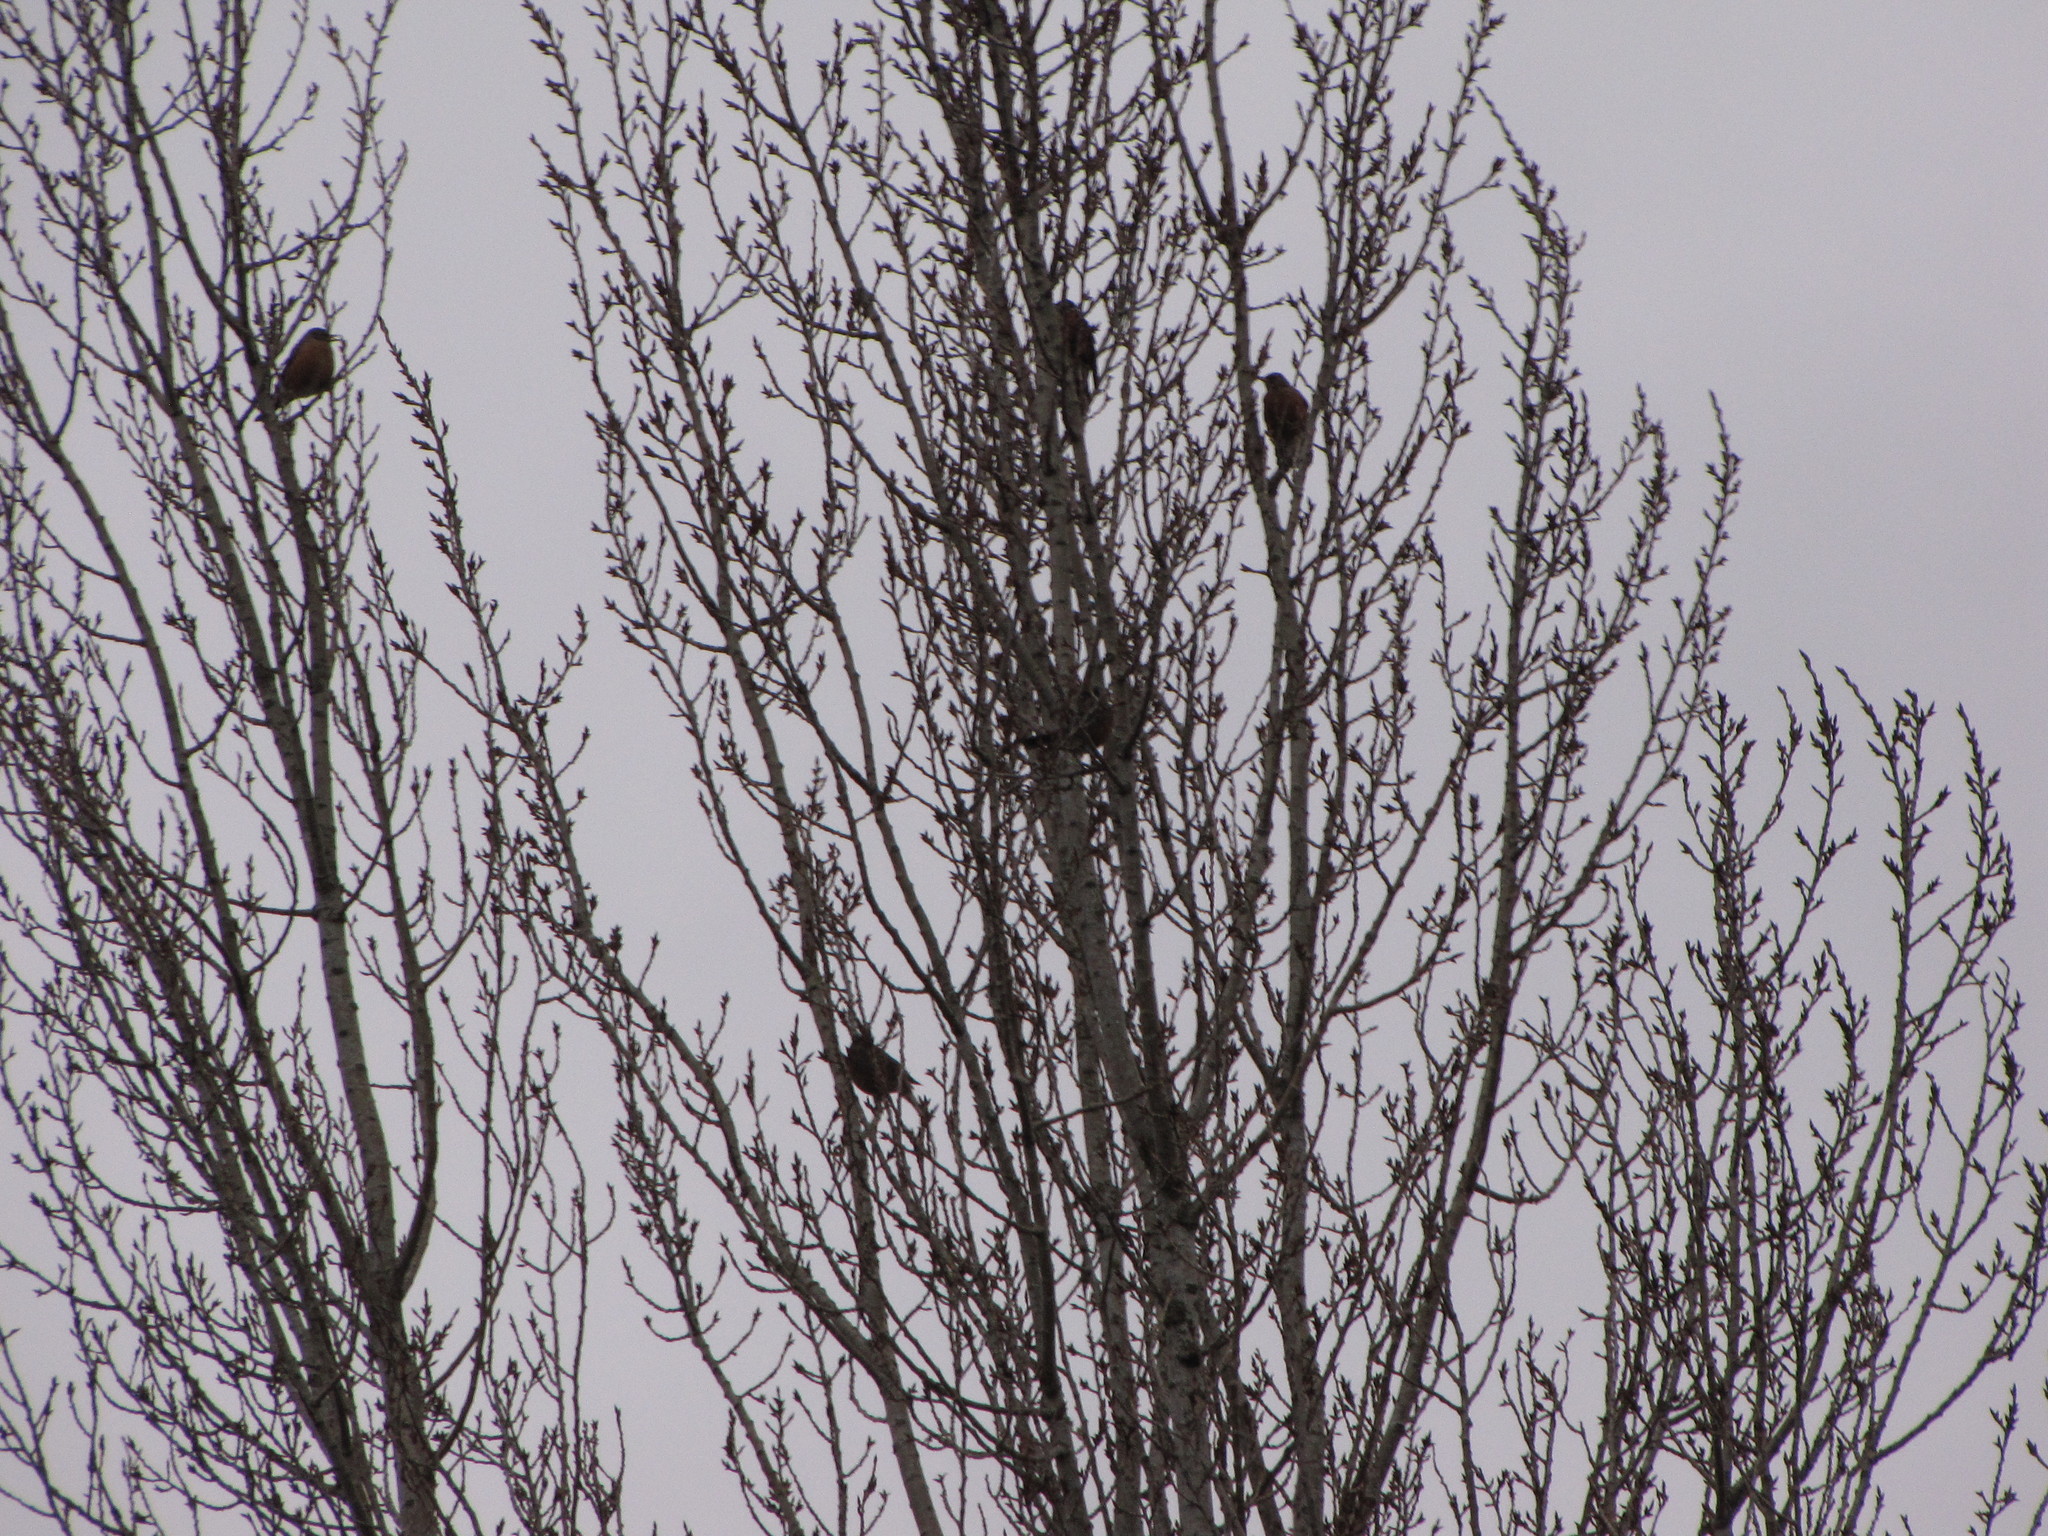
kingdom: Animalia
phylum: Chordata
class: Aves
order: Passeriformes
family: Turdidae
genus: Turdus
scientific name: Turdus migratorius
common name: American robin
